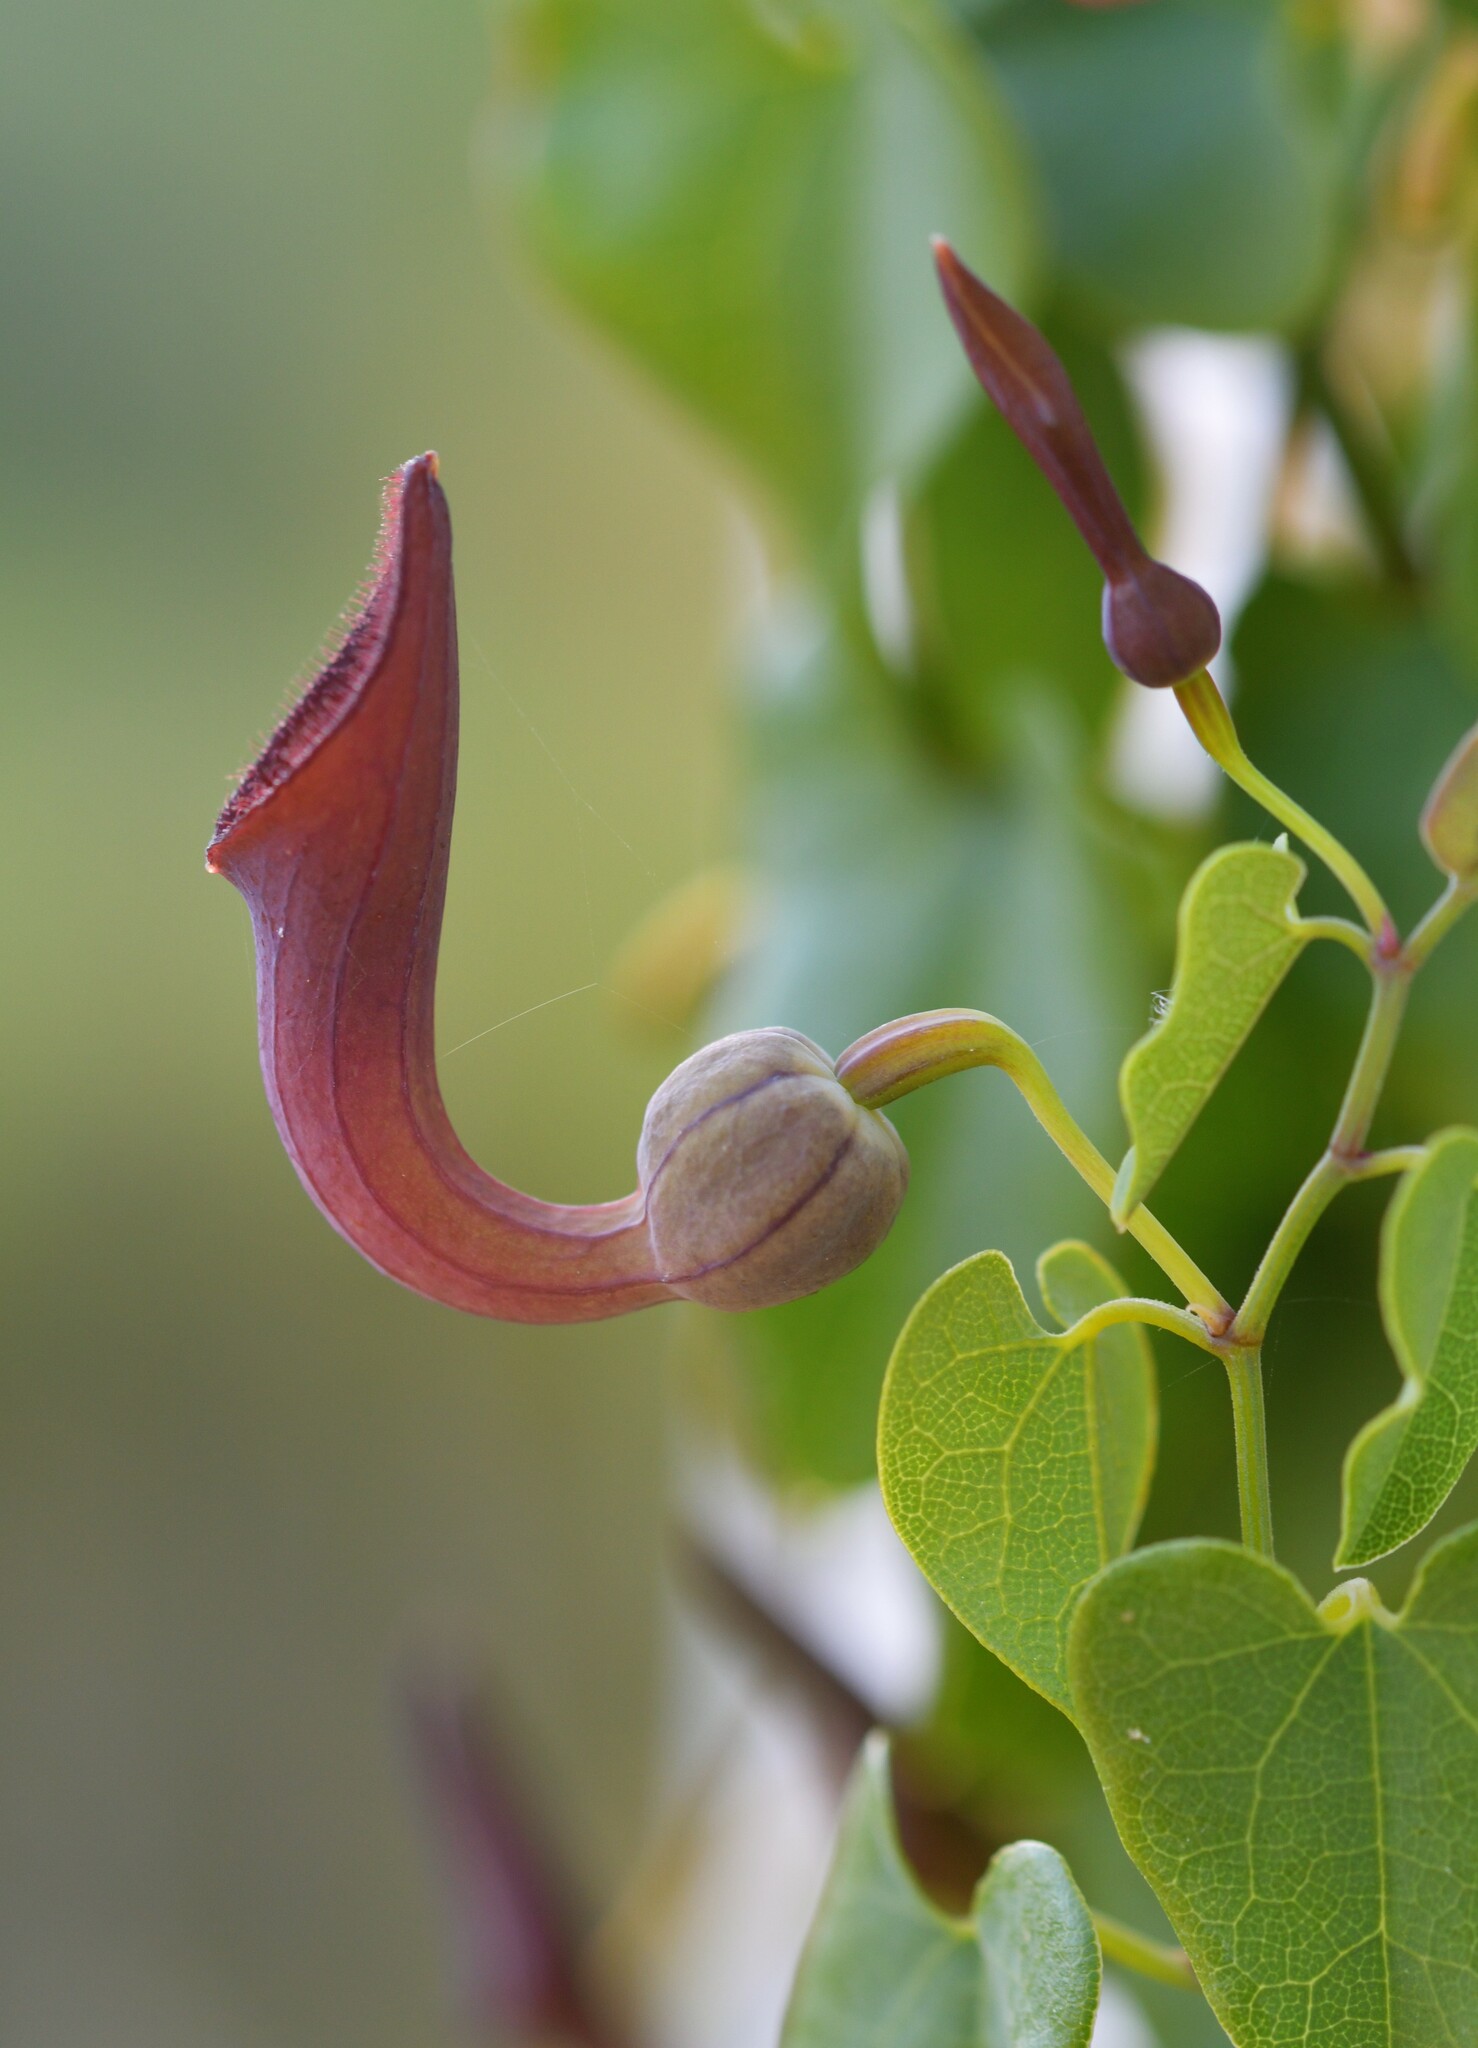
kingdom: Plantae
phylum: Tracheophyta
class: Magnoliopsida
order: Piperales
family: Aristolochiaceae
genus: Aristolochia
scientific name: Aristolochia baetica
